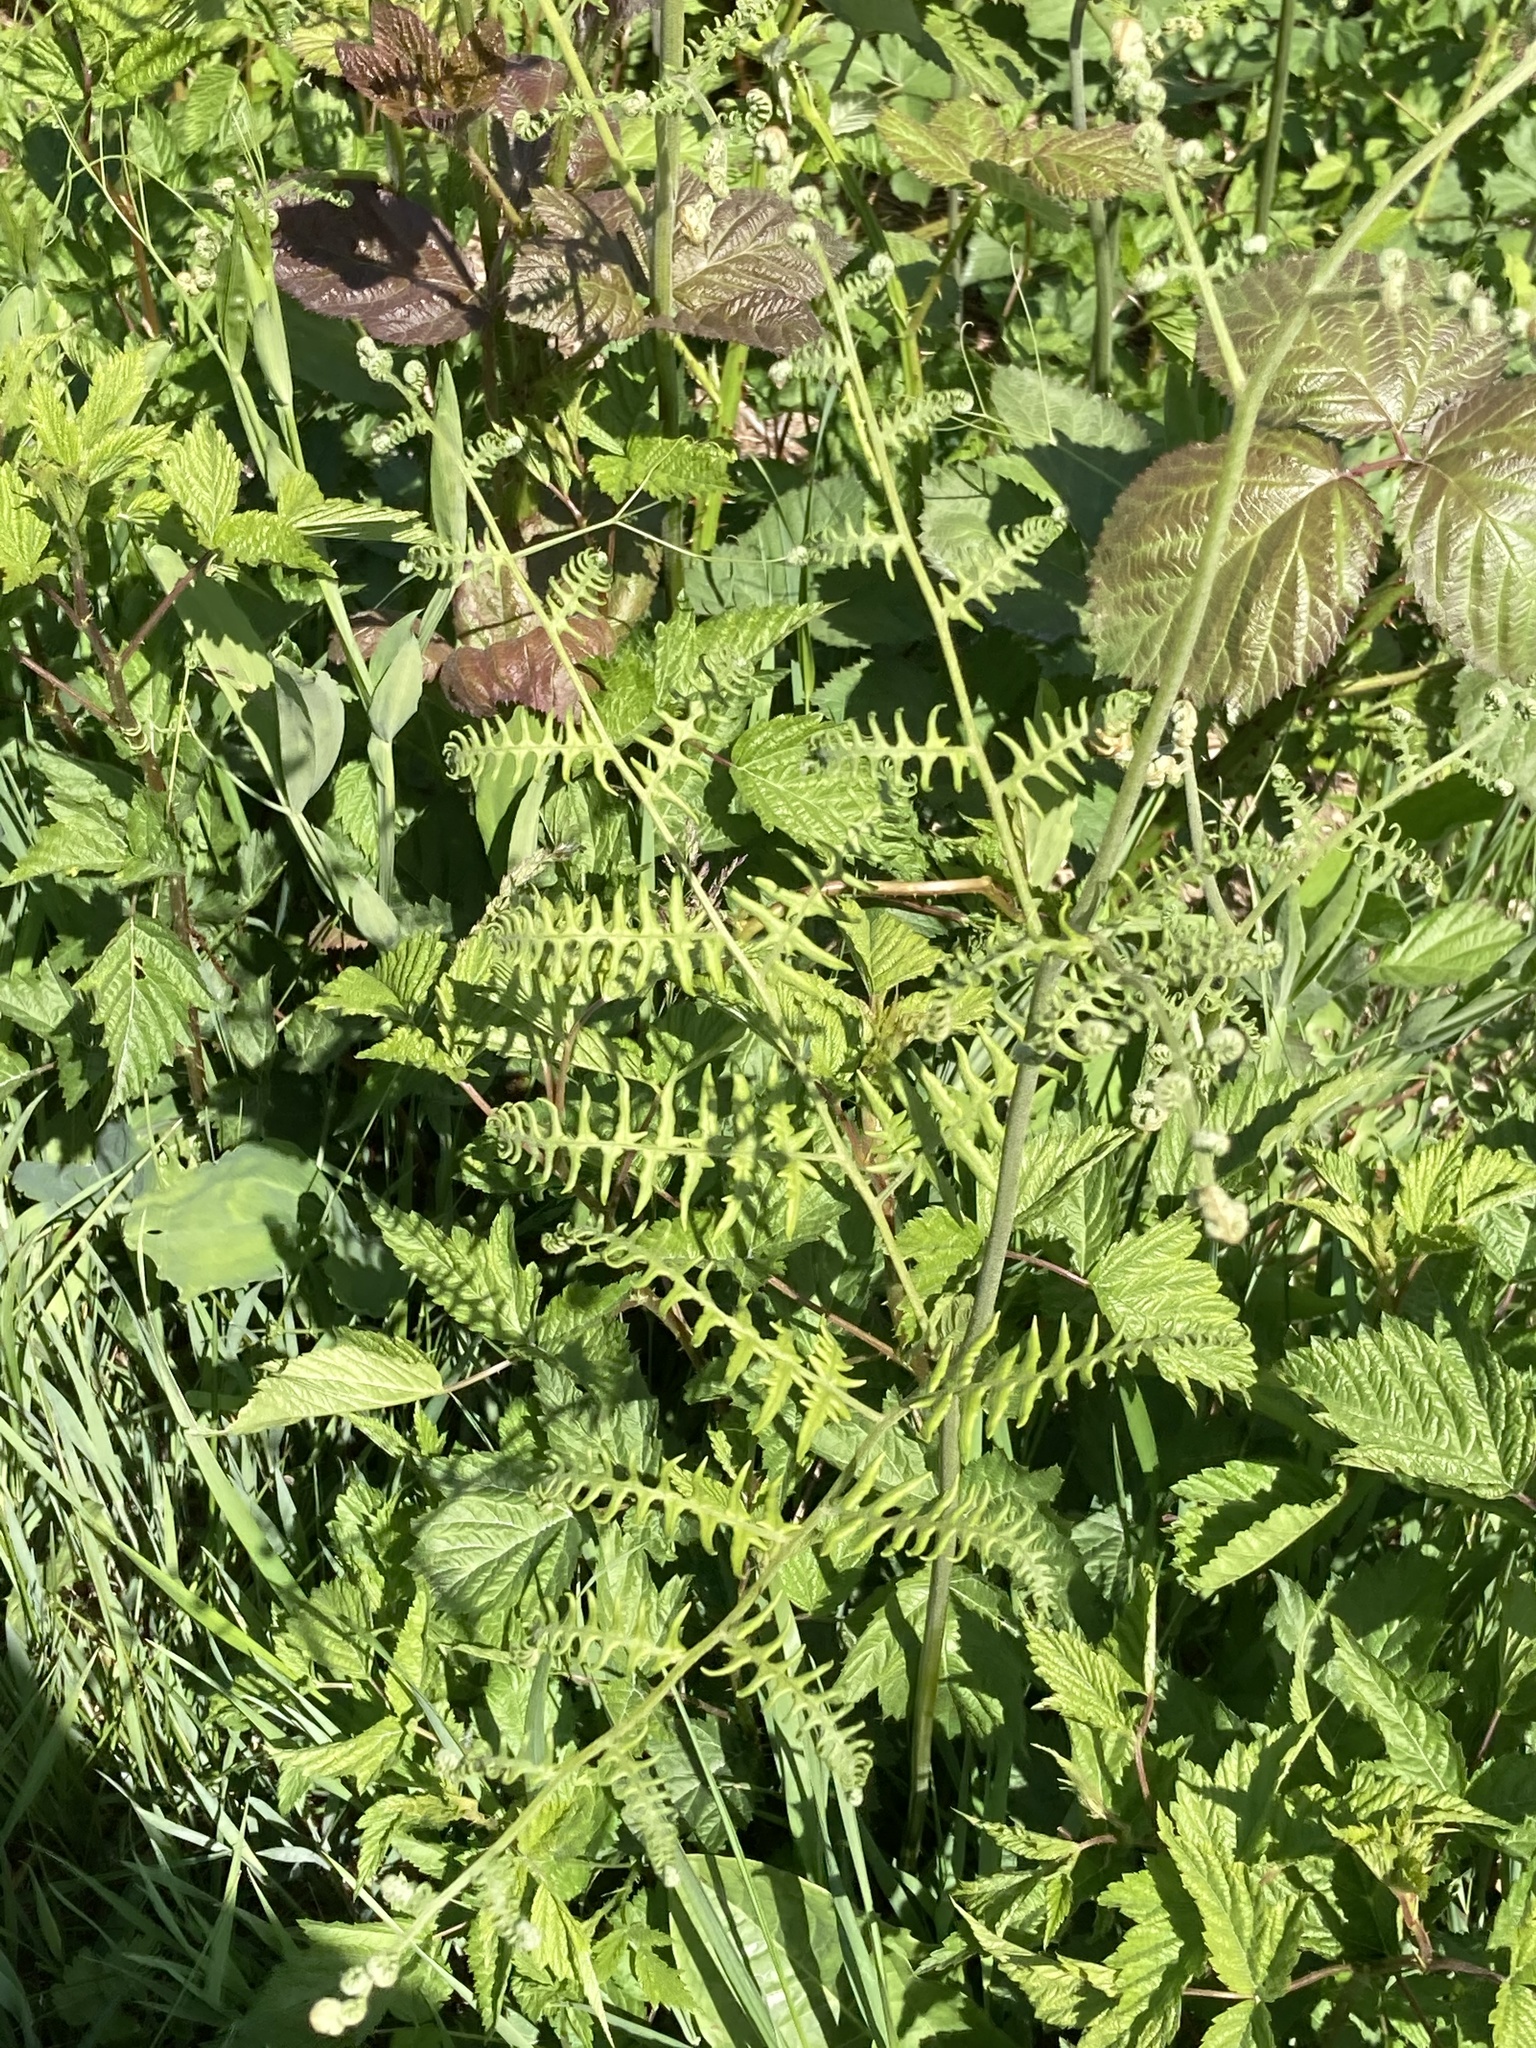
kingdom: Plantae
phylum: Tracheophyta
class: Polypodiopsida
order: Polypodiales
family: Dennstaedtiaceae
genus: Pteridium
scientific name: Pteridium aquilinum
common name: Bracken
